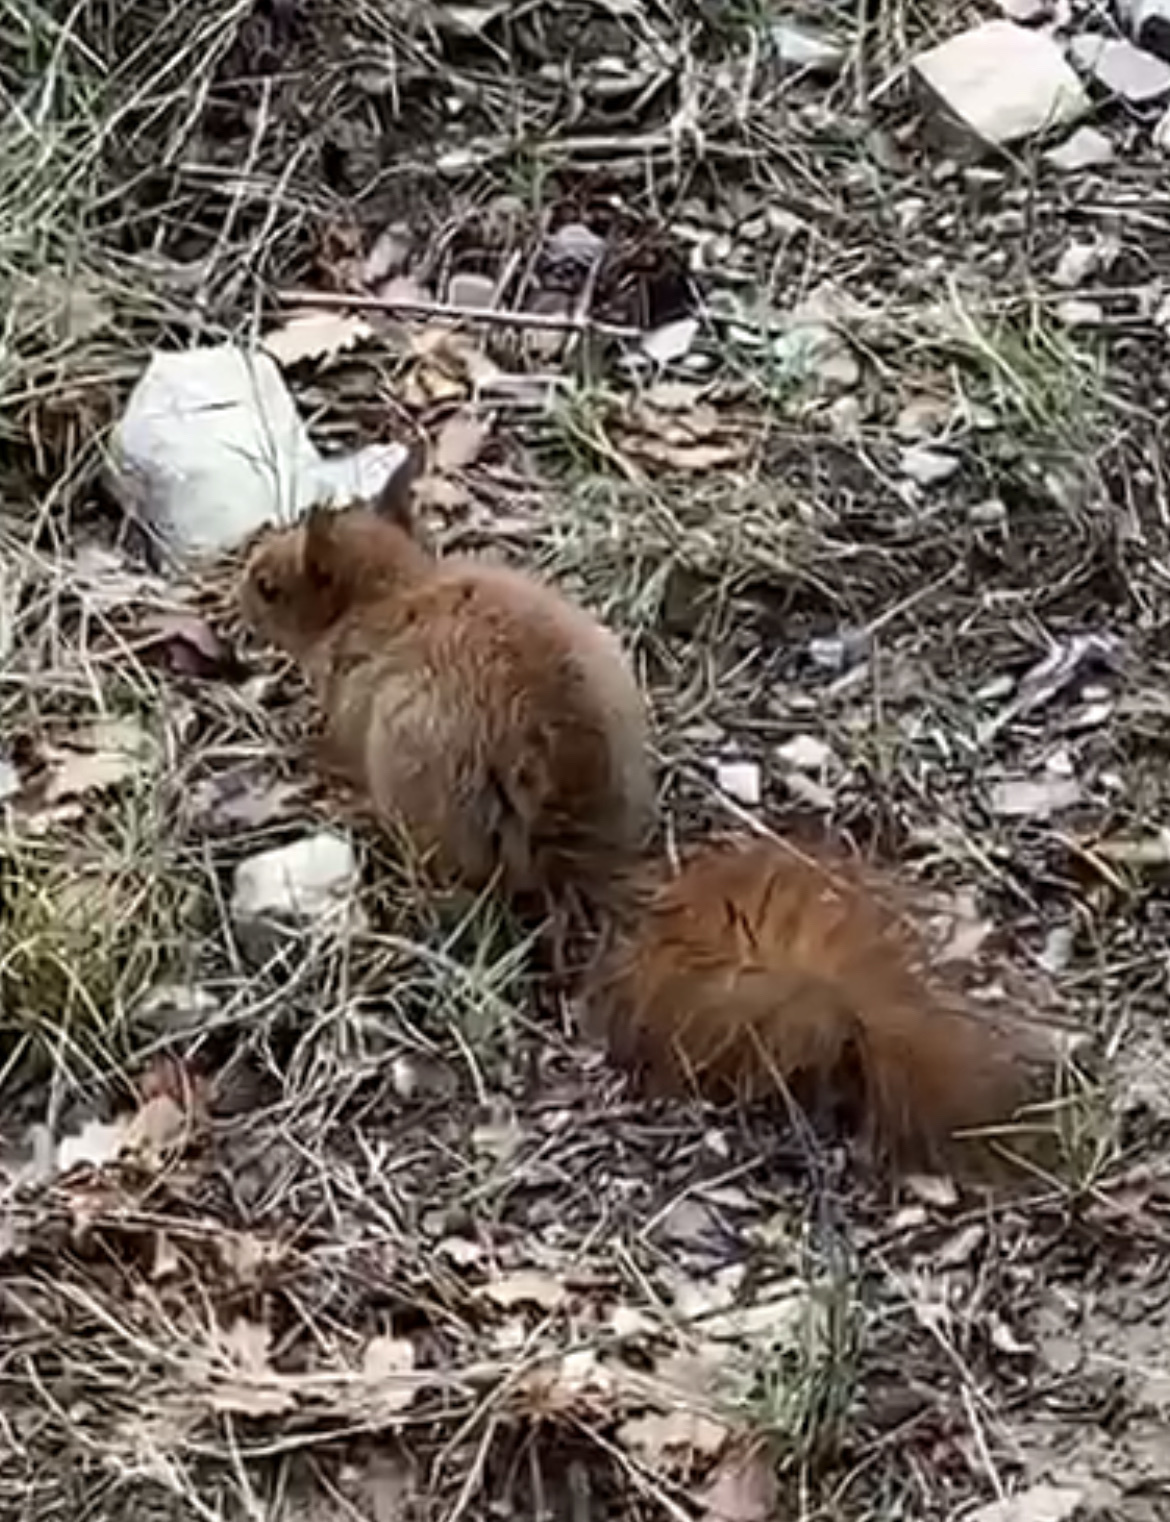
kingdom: Animalia
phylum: Chordata
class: Mammalia
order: Rodentia
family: Sciuridae
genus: Sciurus
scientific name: Sciurus vulgaris
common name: Eurasian red squirrel
